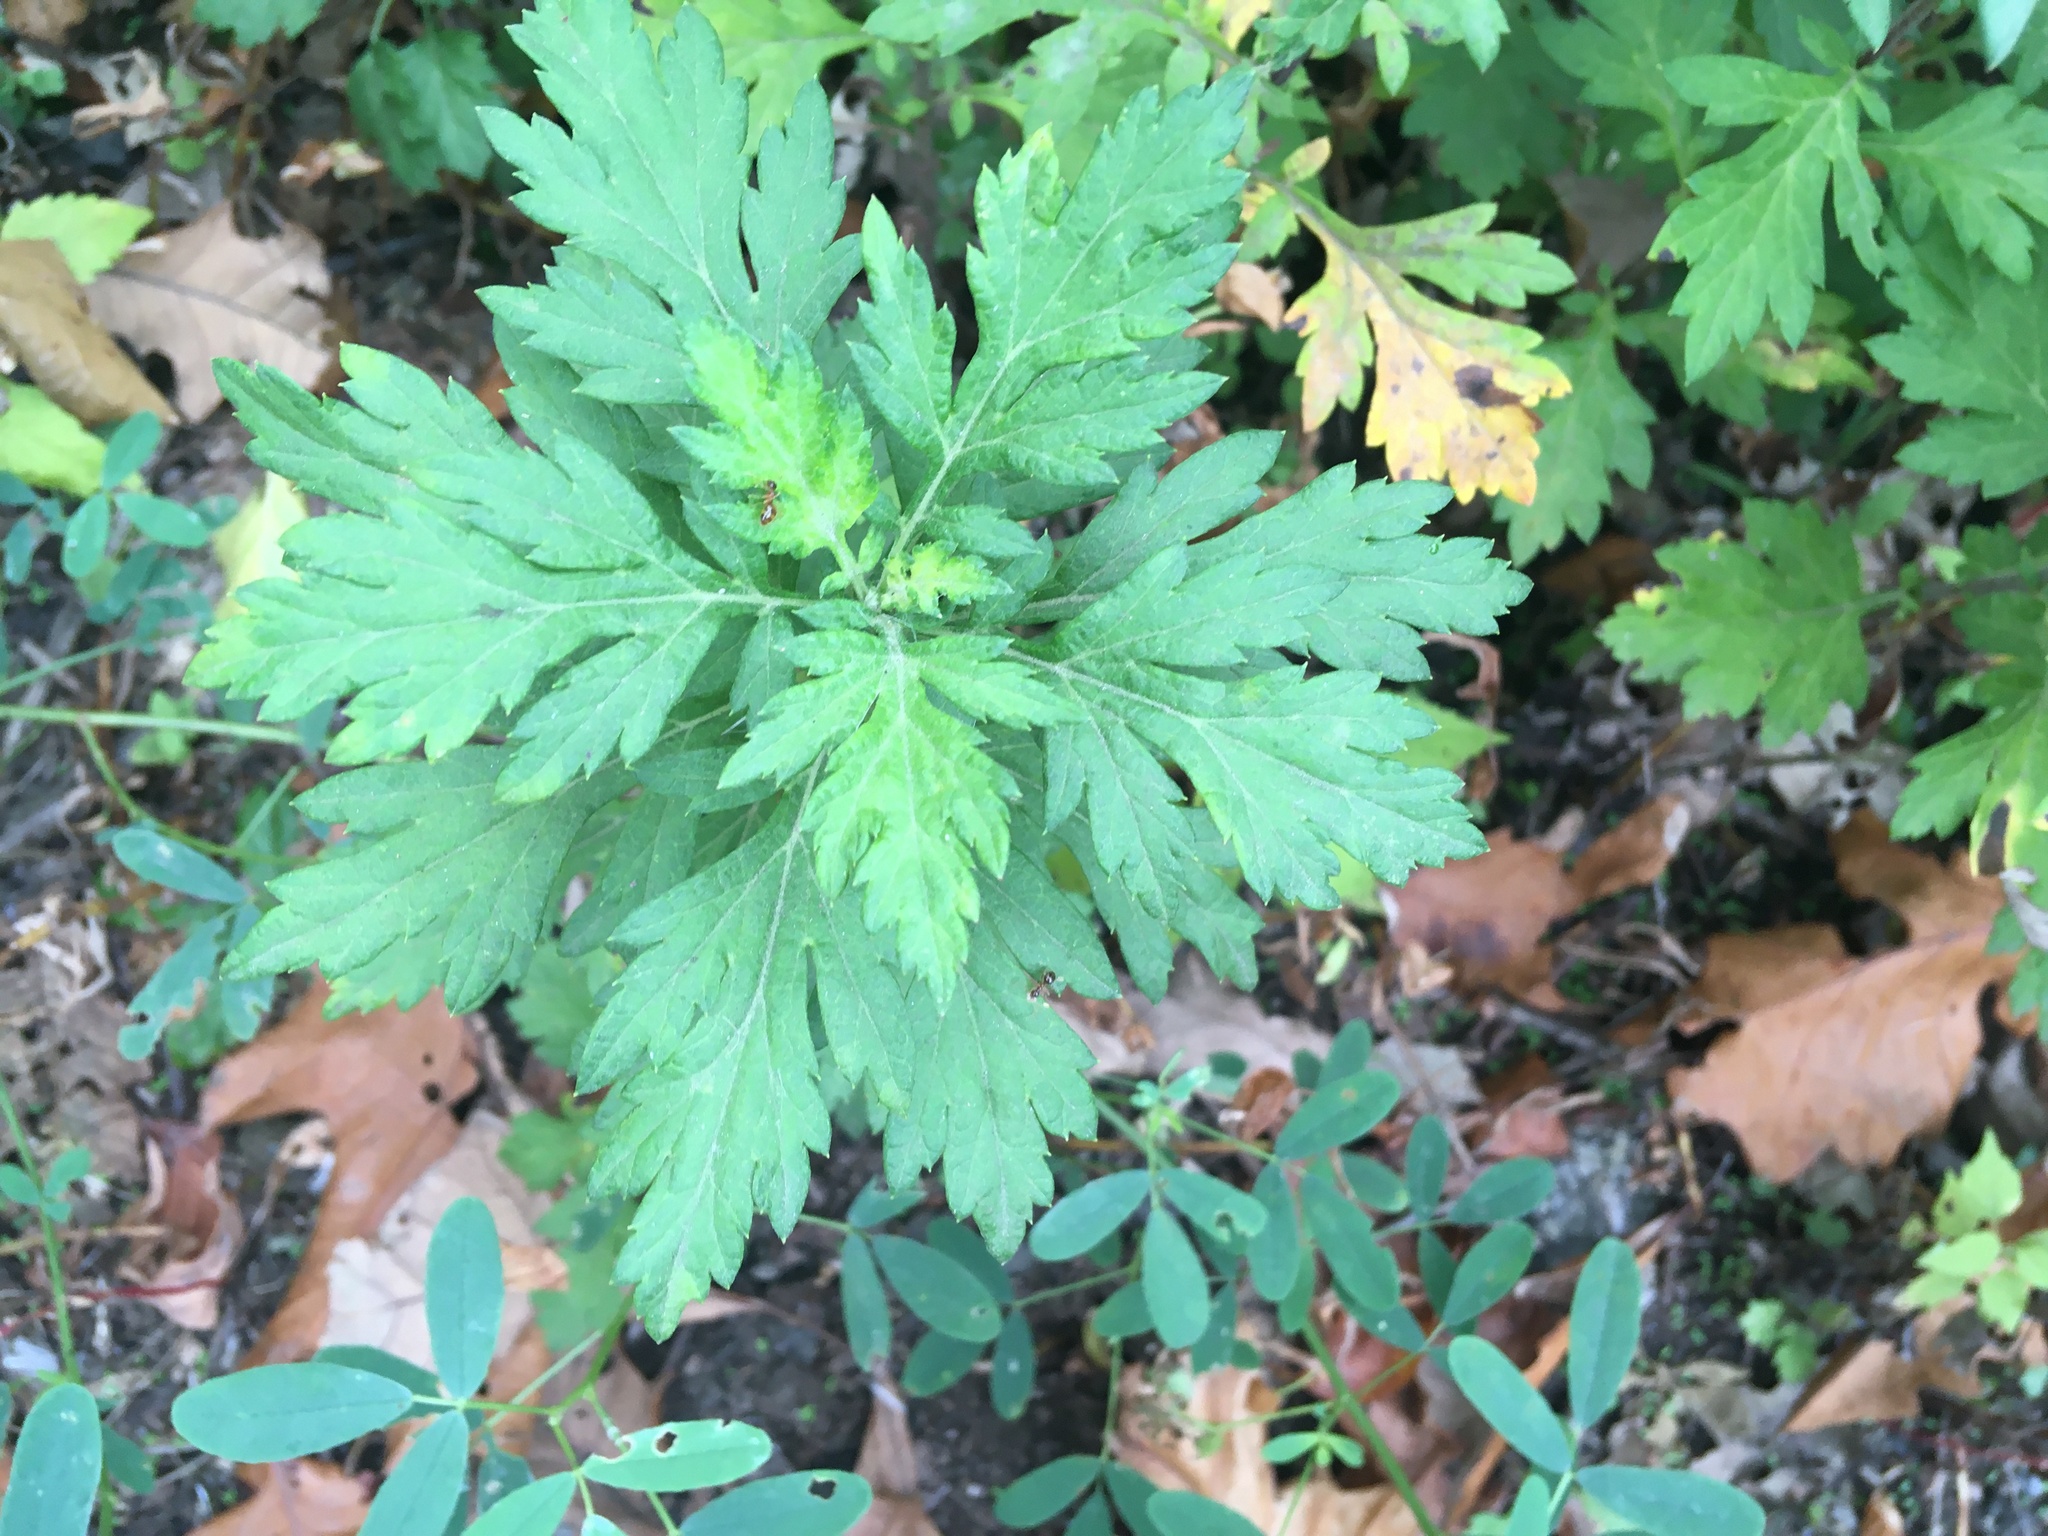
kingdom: Plantae
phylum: Tracheophyta
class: Magnoliopsida
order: Asterales
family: Asteraceae
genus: Artemisia
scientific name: Artemisia vulgaris
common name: Mugwort
